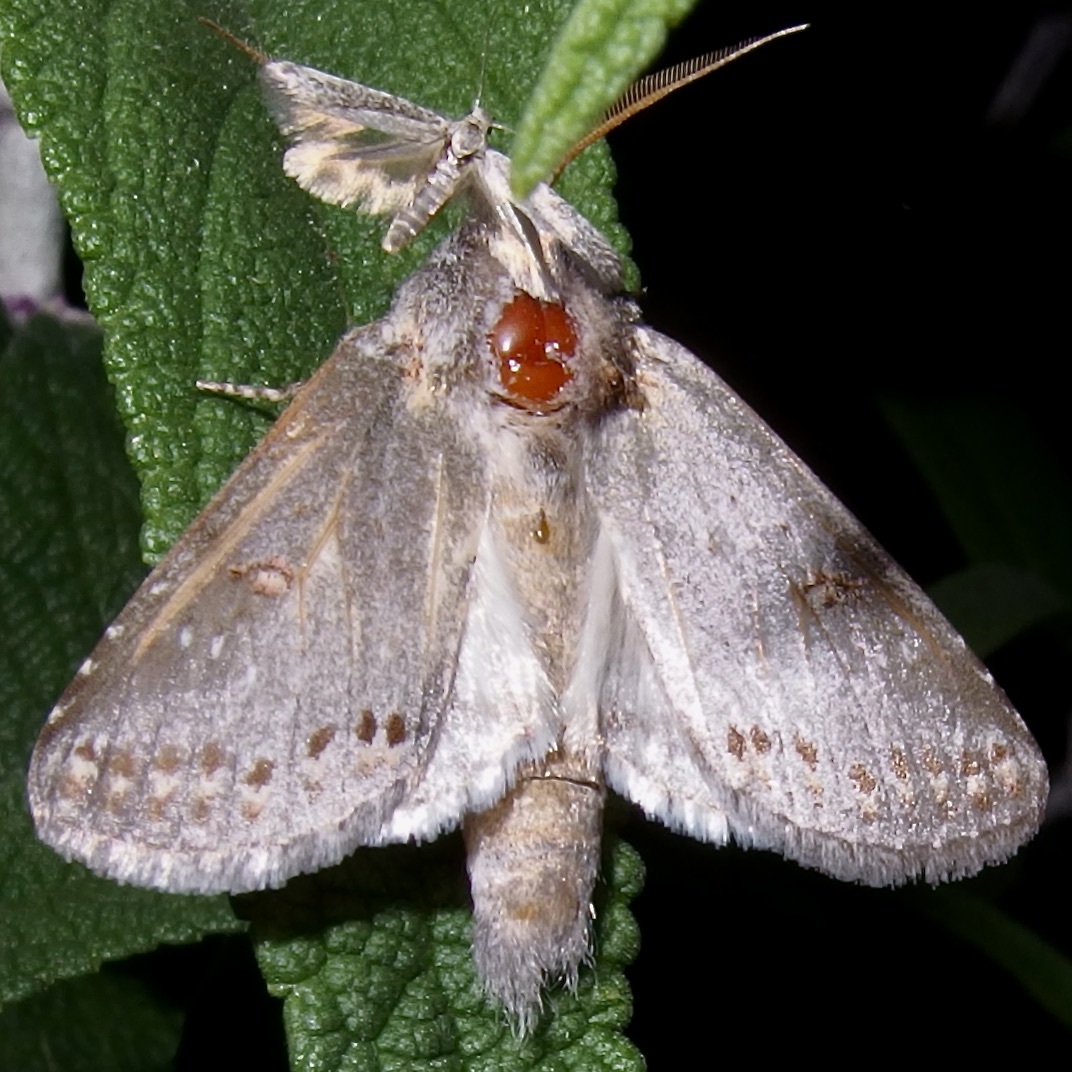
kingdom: Animalia
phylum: Arthropoda
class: Insecta
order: Lepidoptera
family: Notodontidae
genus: Theroa
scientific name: Theroa zethus
